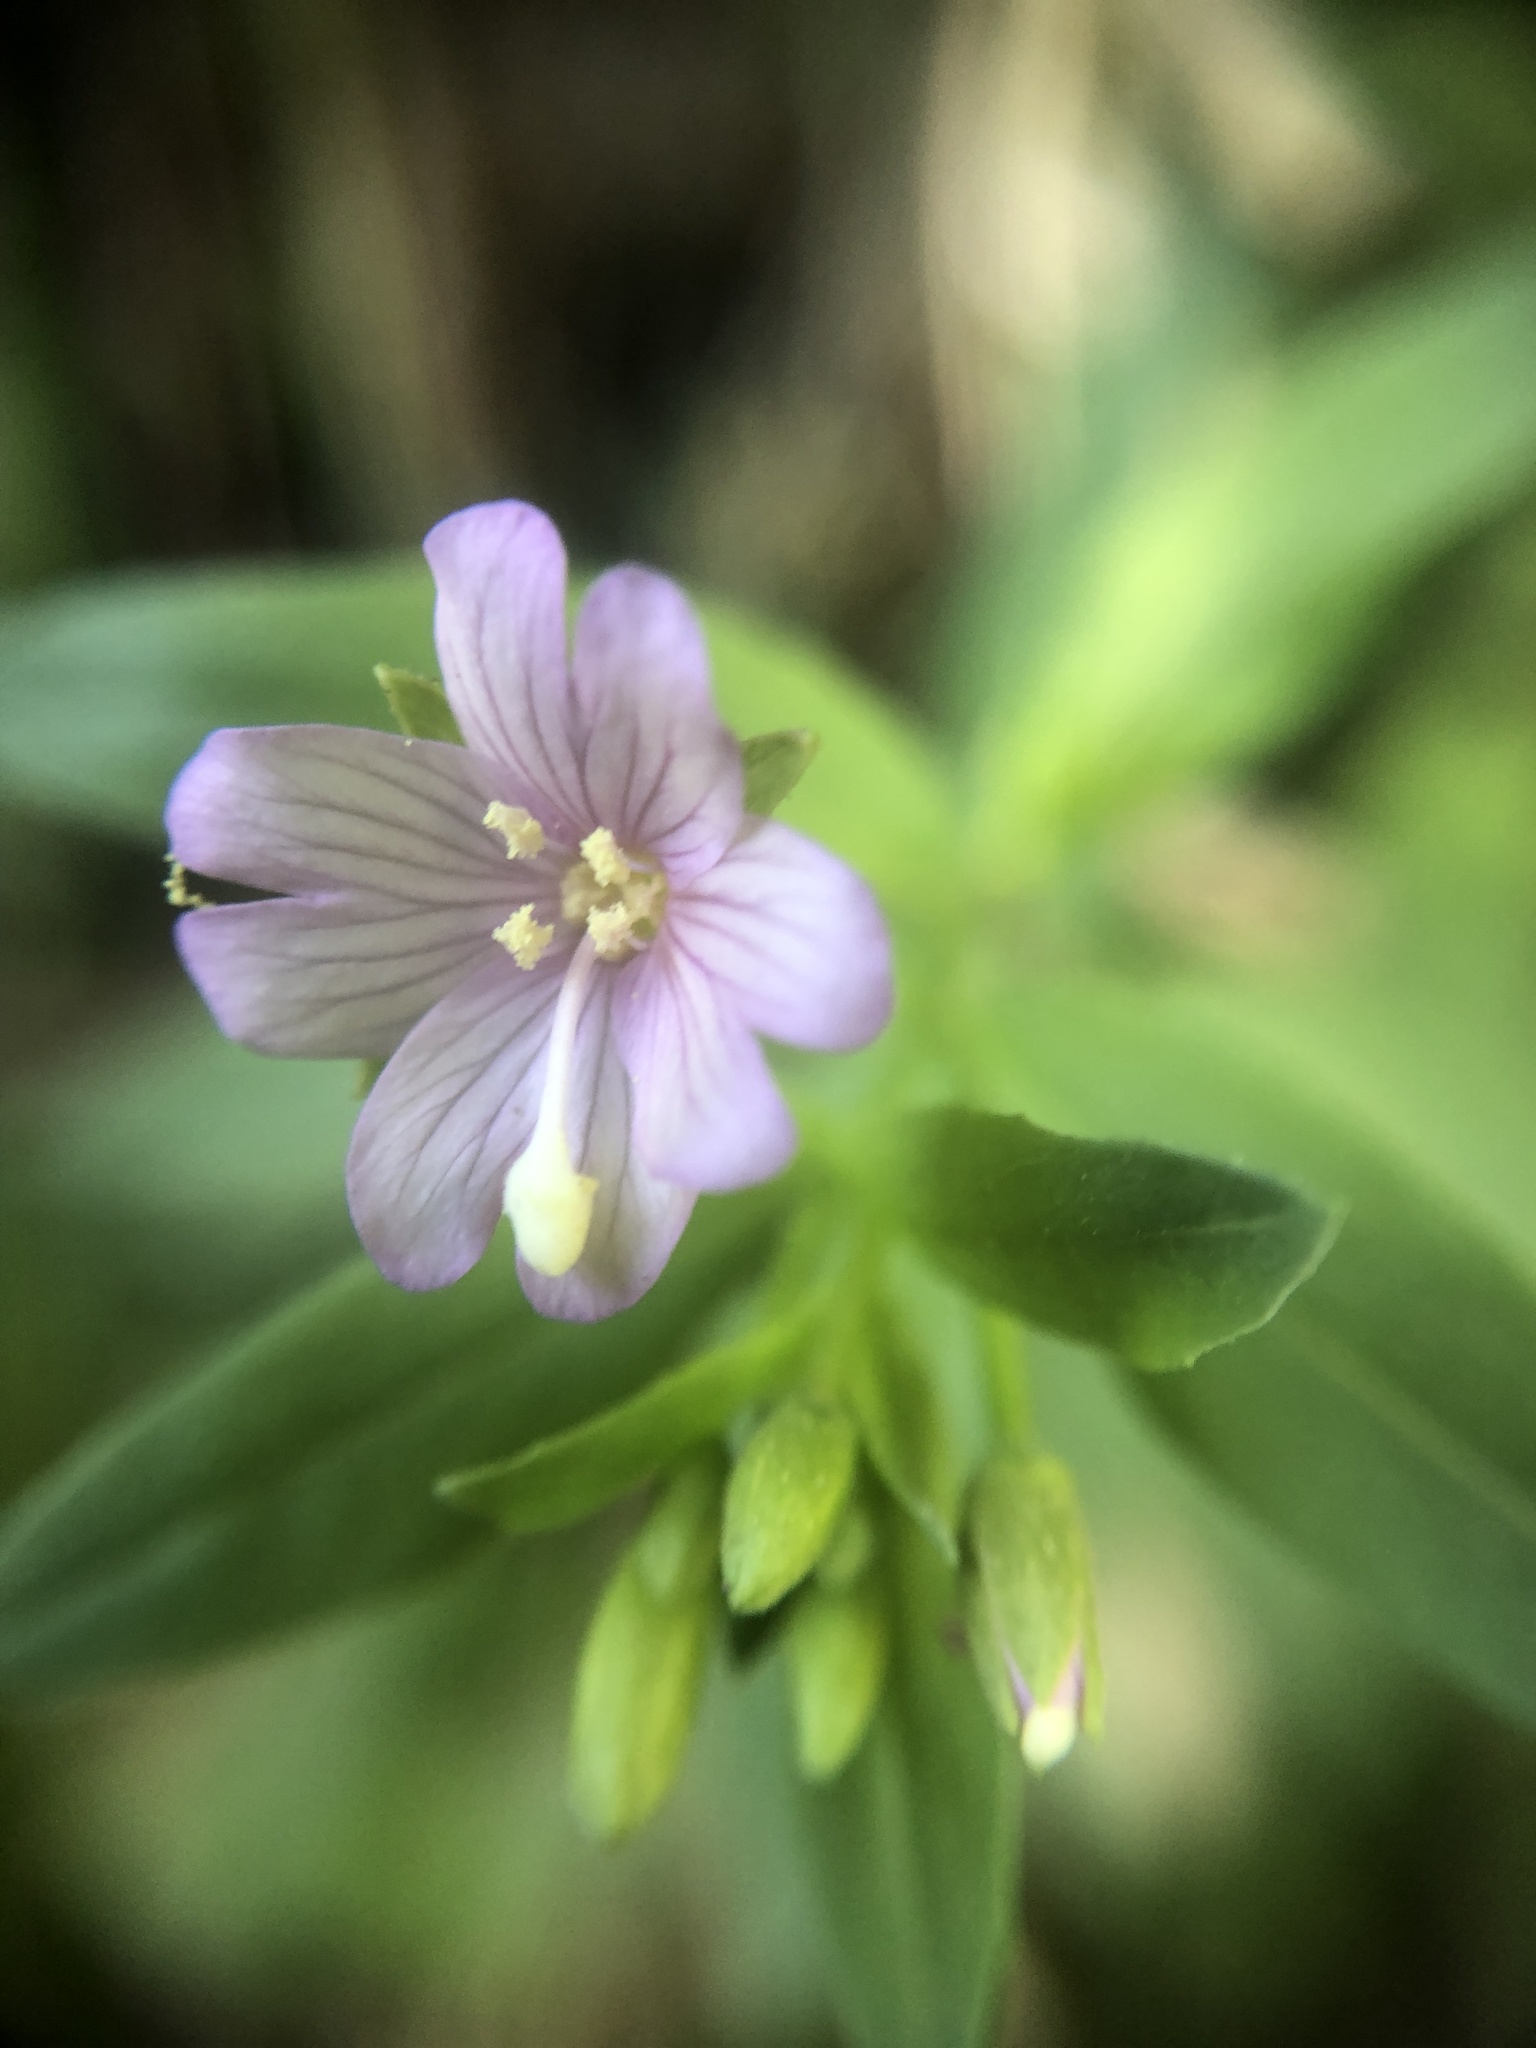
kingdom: Plantae
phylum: Tracheophyta
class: Magnoliopsida
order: Myrtales
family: Onagraceae
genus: Epilobium
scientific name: Epilobium ciliatum
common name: American willowherb
